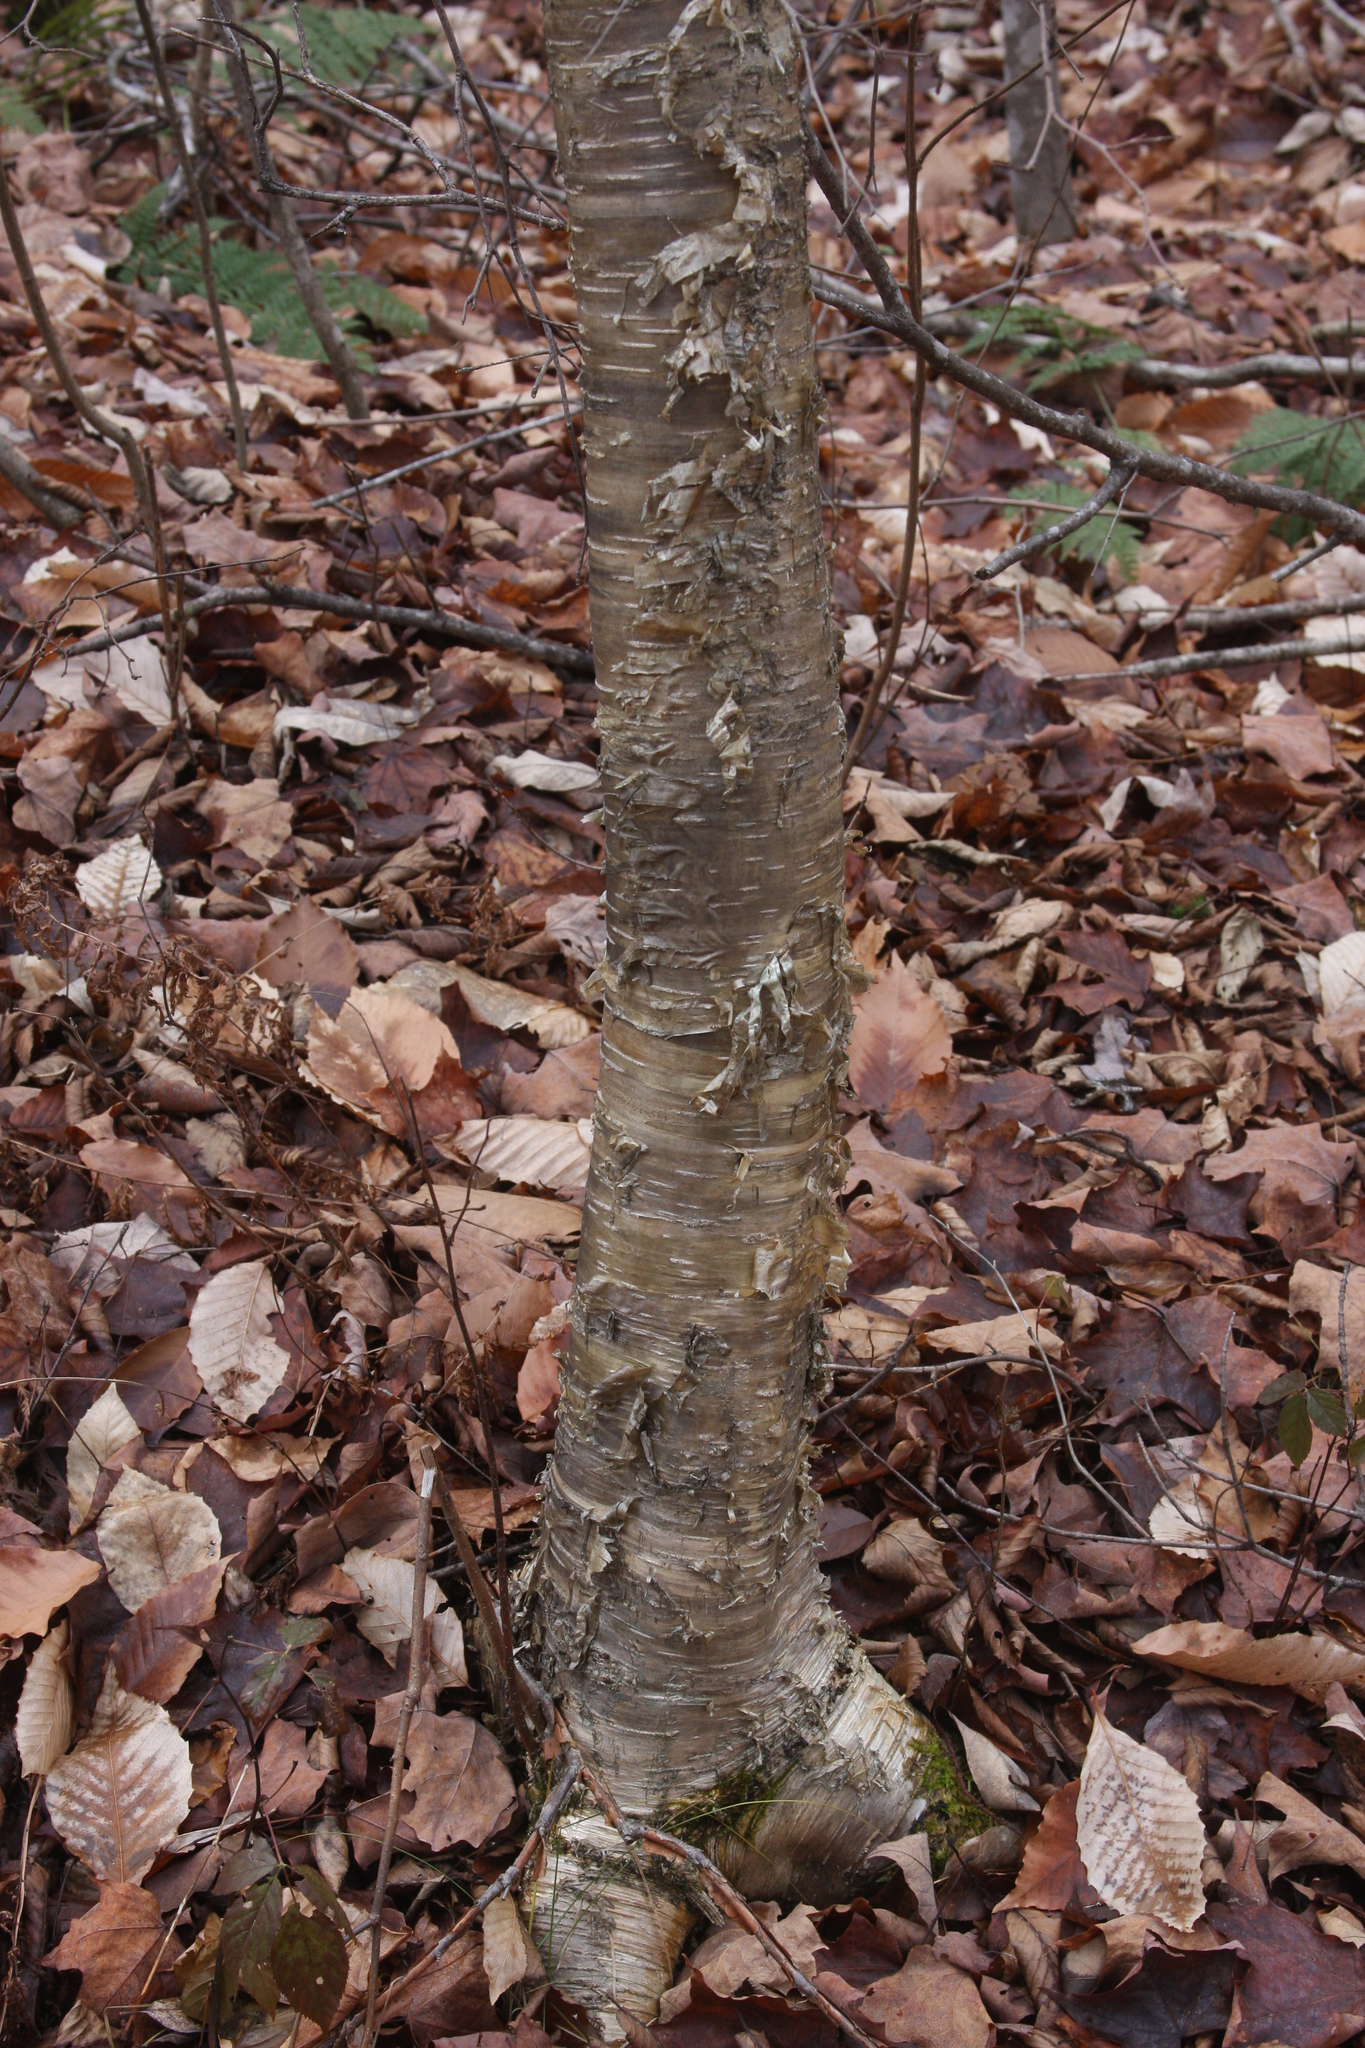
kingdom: Plantae
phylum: Tracheophyta
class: Magnoliopsida
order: Fagales
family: Betulaceae
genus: Betula
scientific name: Betula alleghaniensis
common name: Yellow birch
